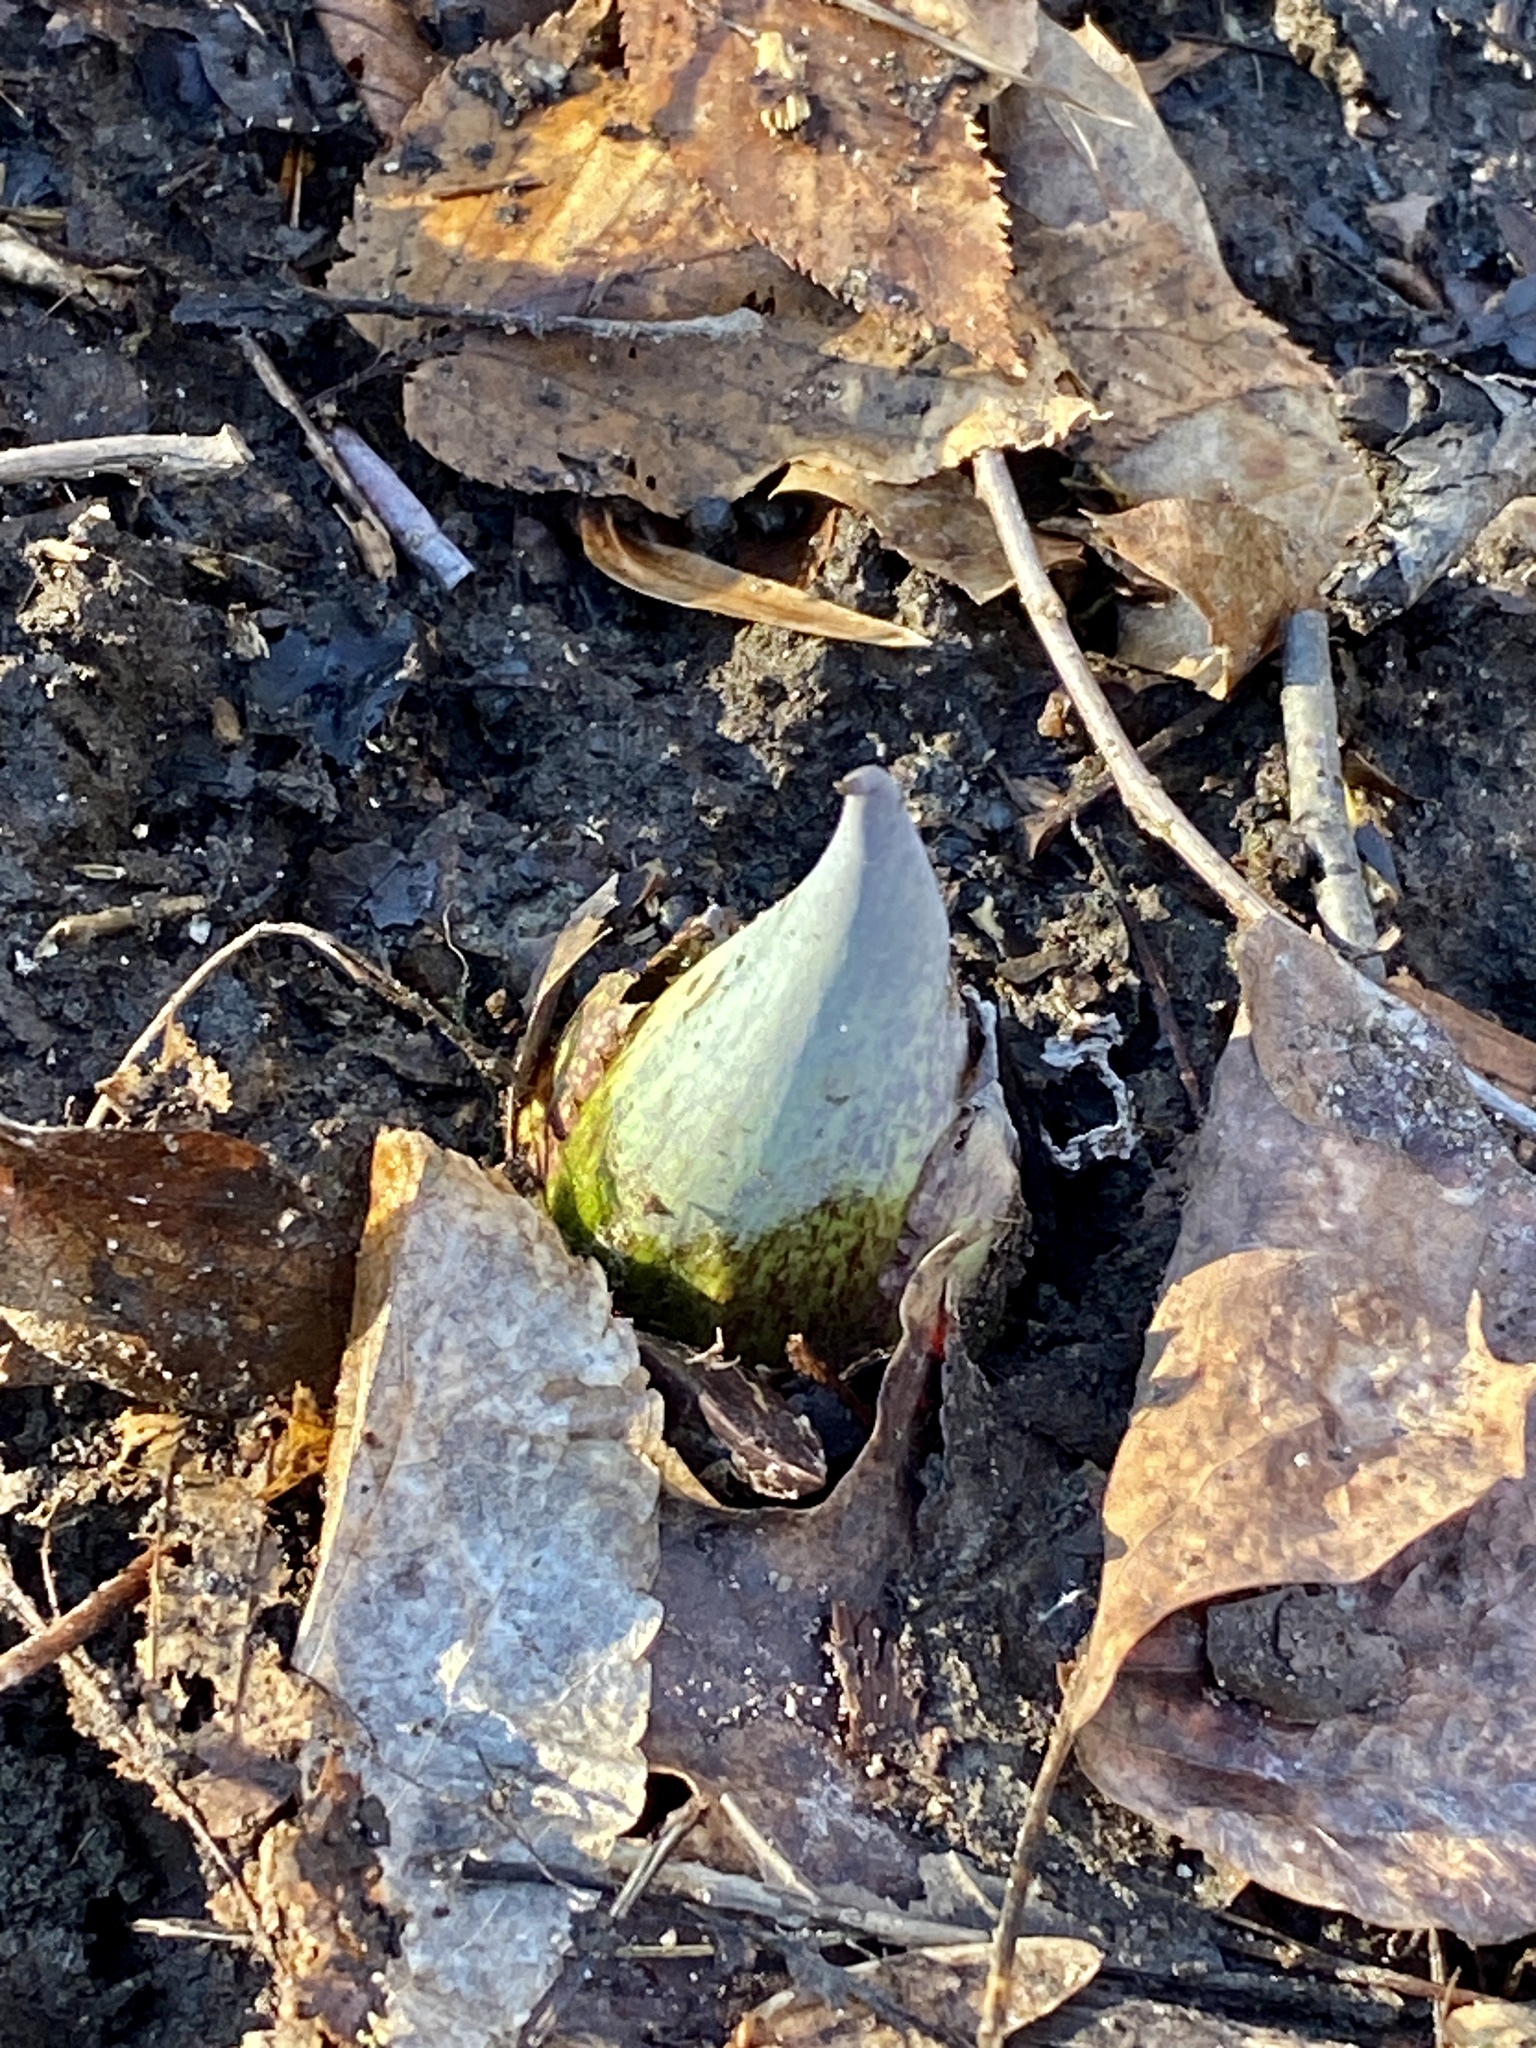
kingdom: Plantae
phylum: Tracheophyta
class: Liliopsida
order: Alismatales
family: Araceae
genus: Symplocarpus
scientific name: Symplocarpus foetidus
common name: Eastern skunk cabbage
